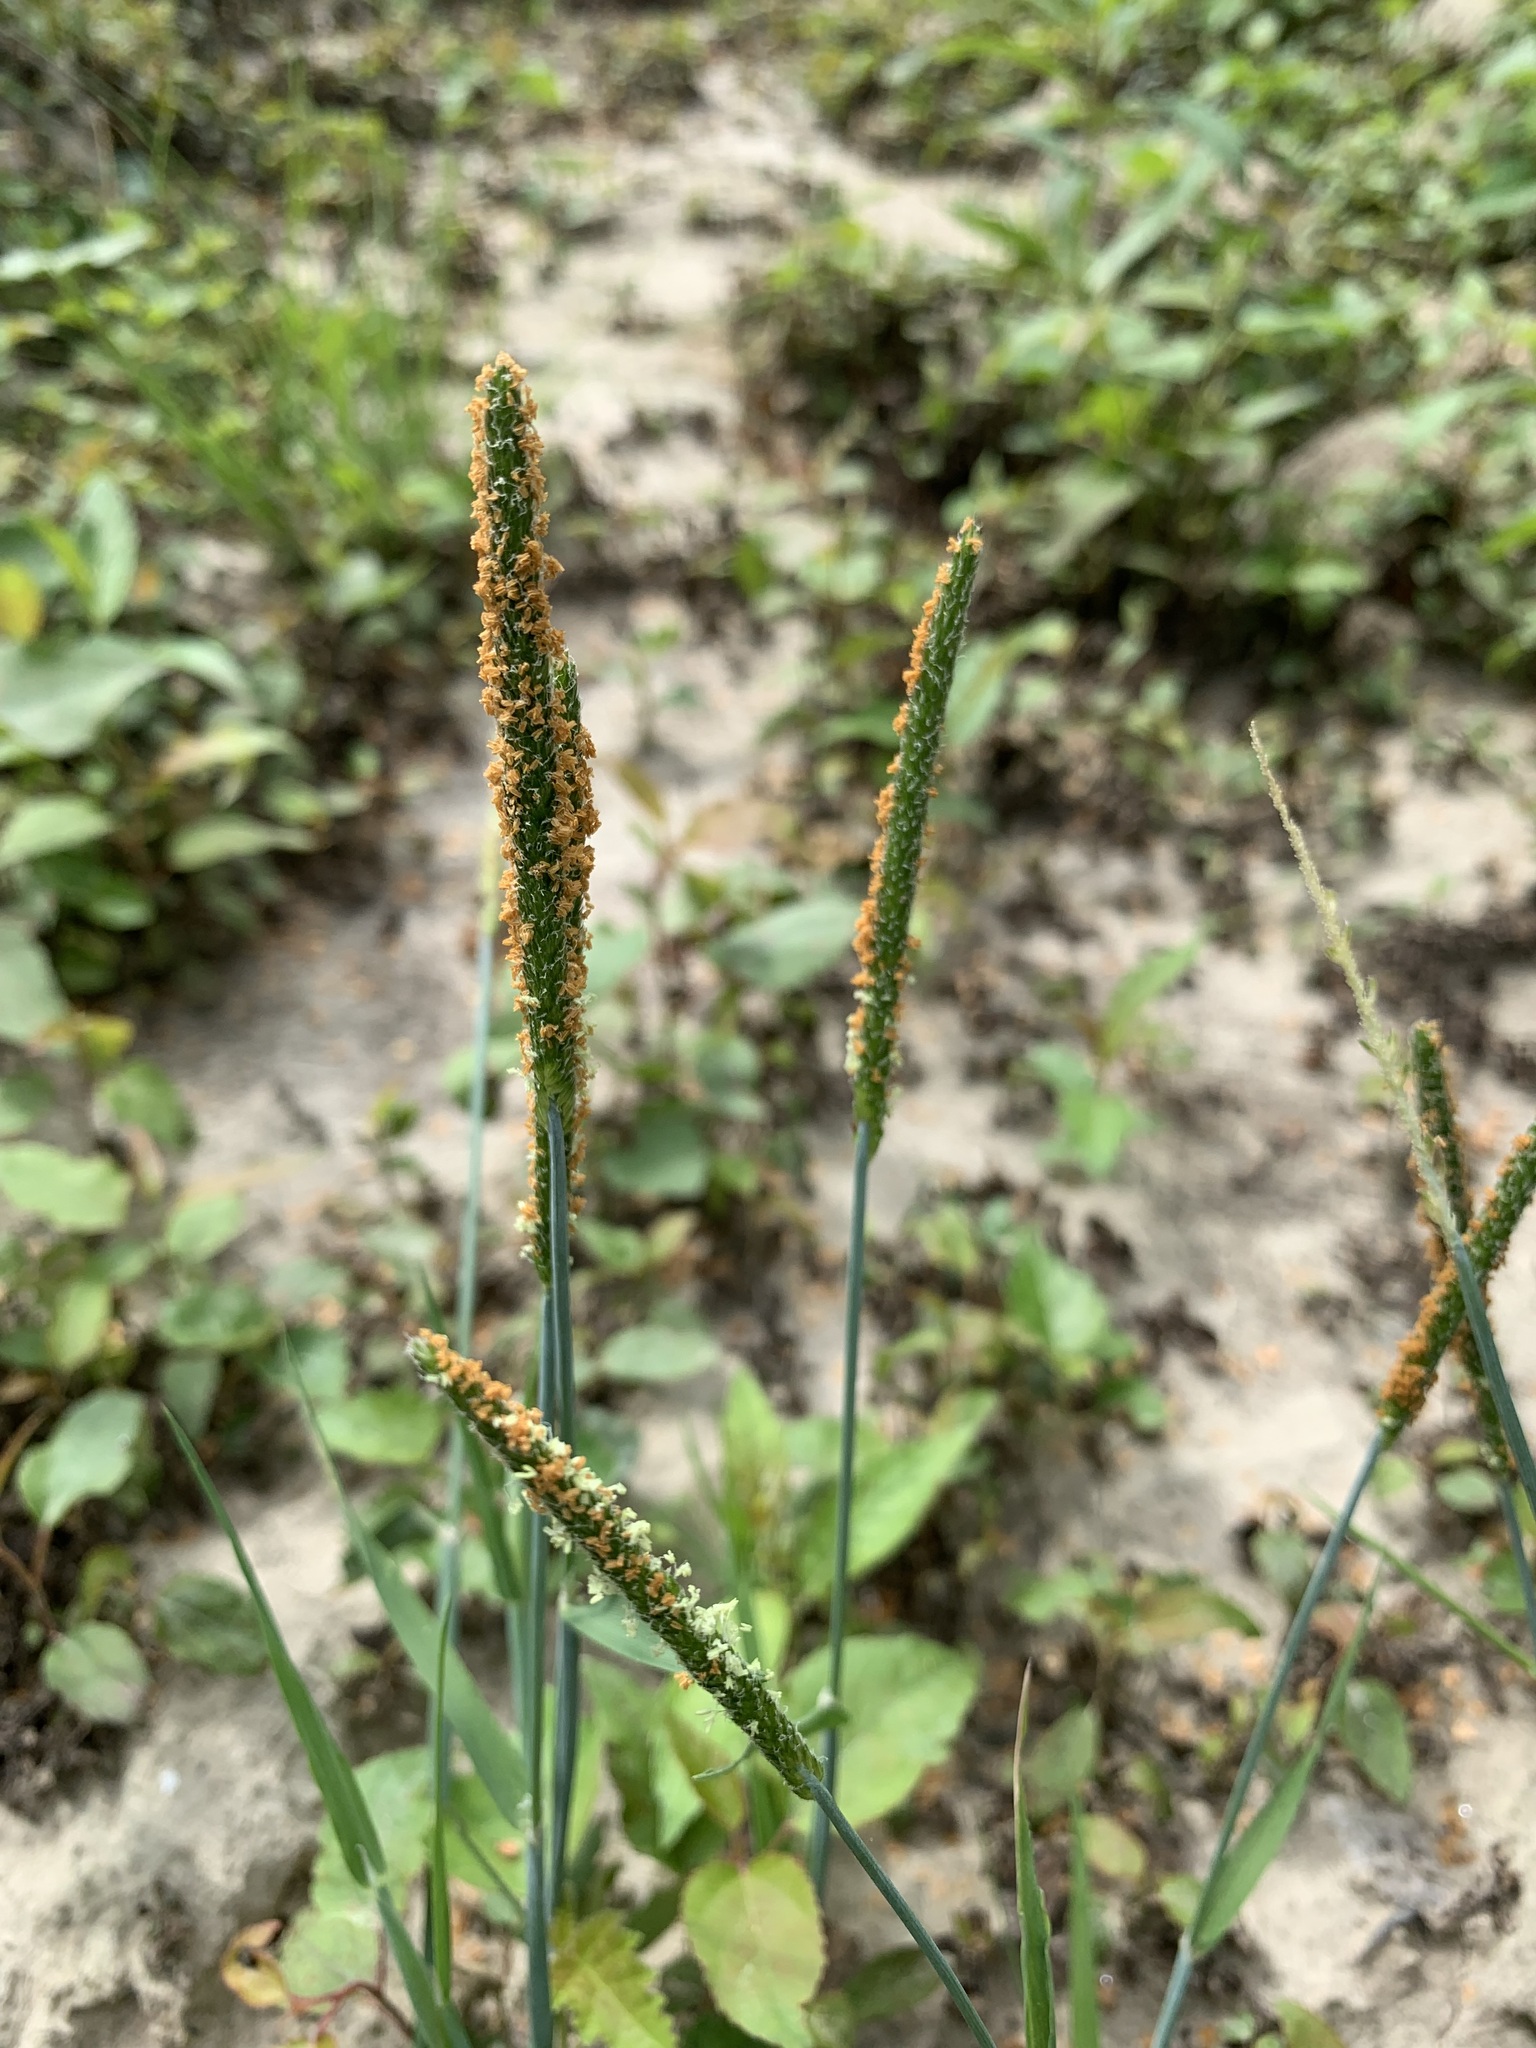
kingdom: Plantae
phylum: Tracheophyta
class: Liliopsida
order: Poales
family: Poaceae
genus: Alopecurus
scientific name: Alopecurus aequalis
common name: Orange foxtail
